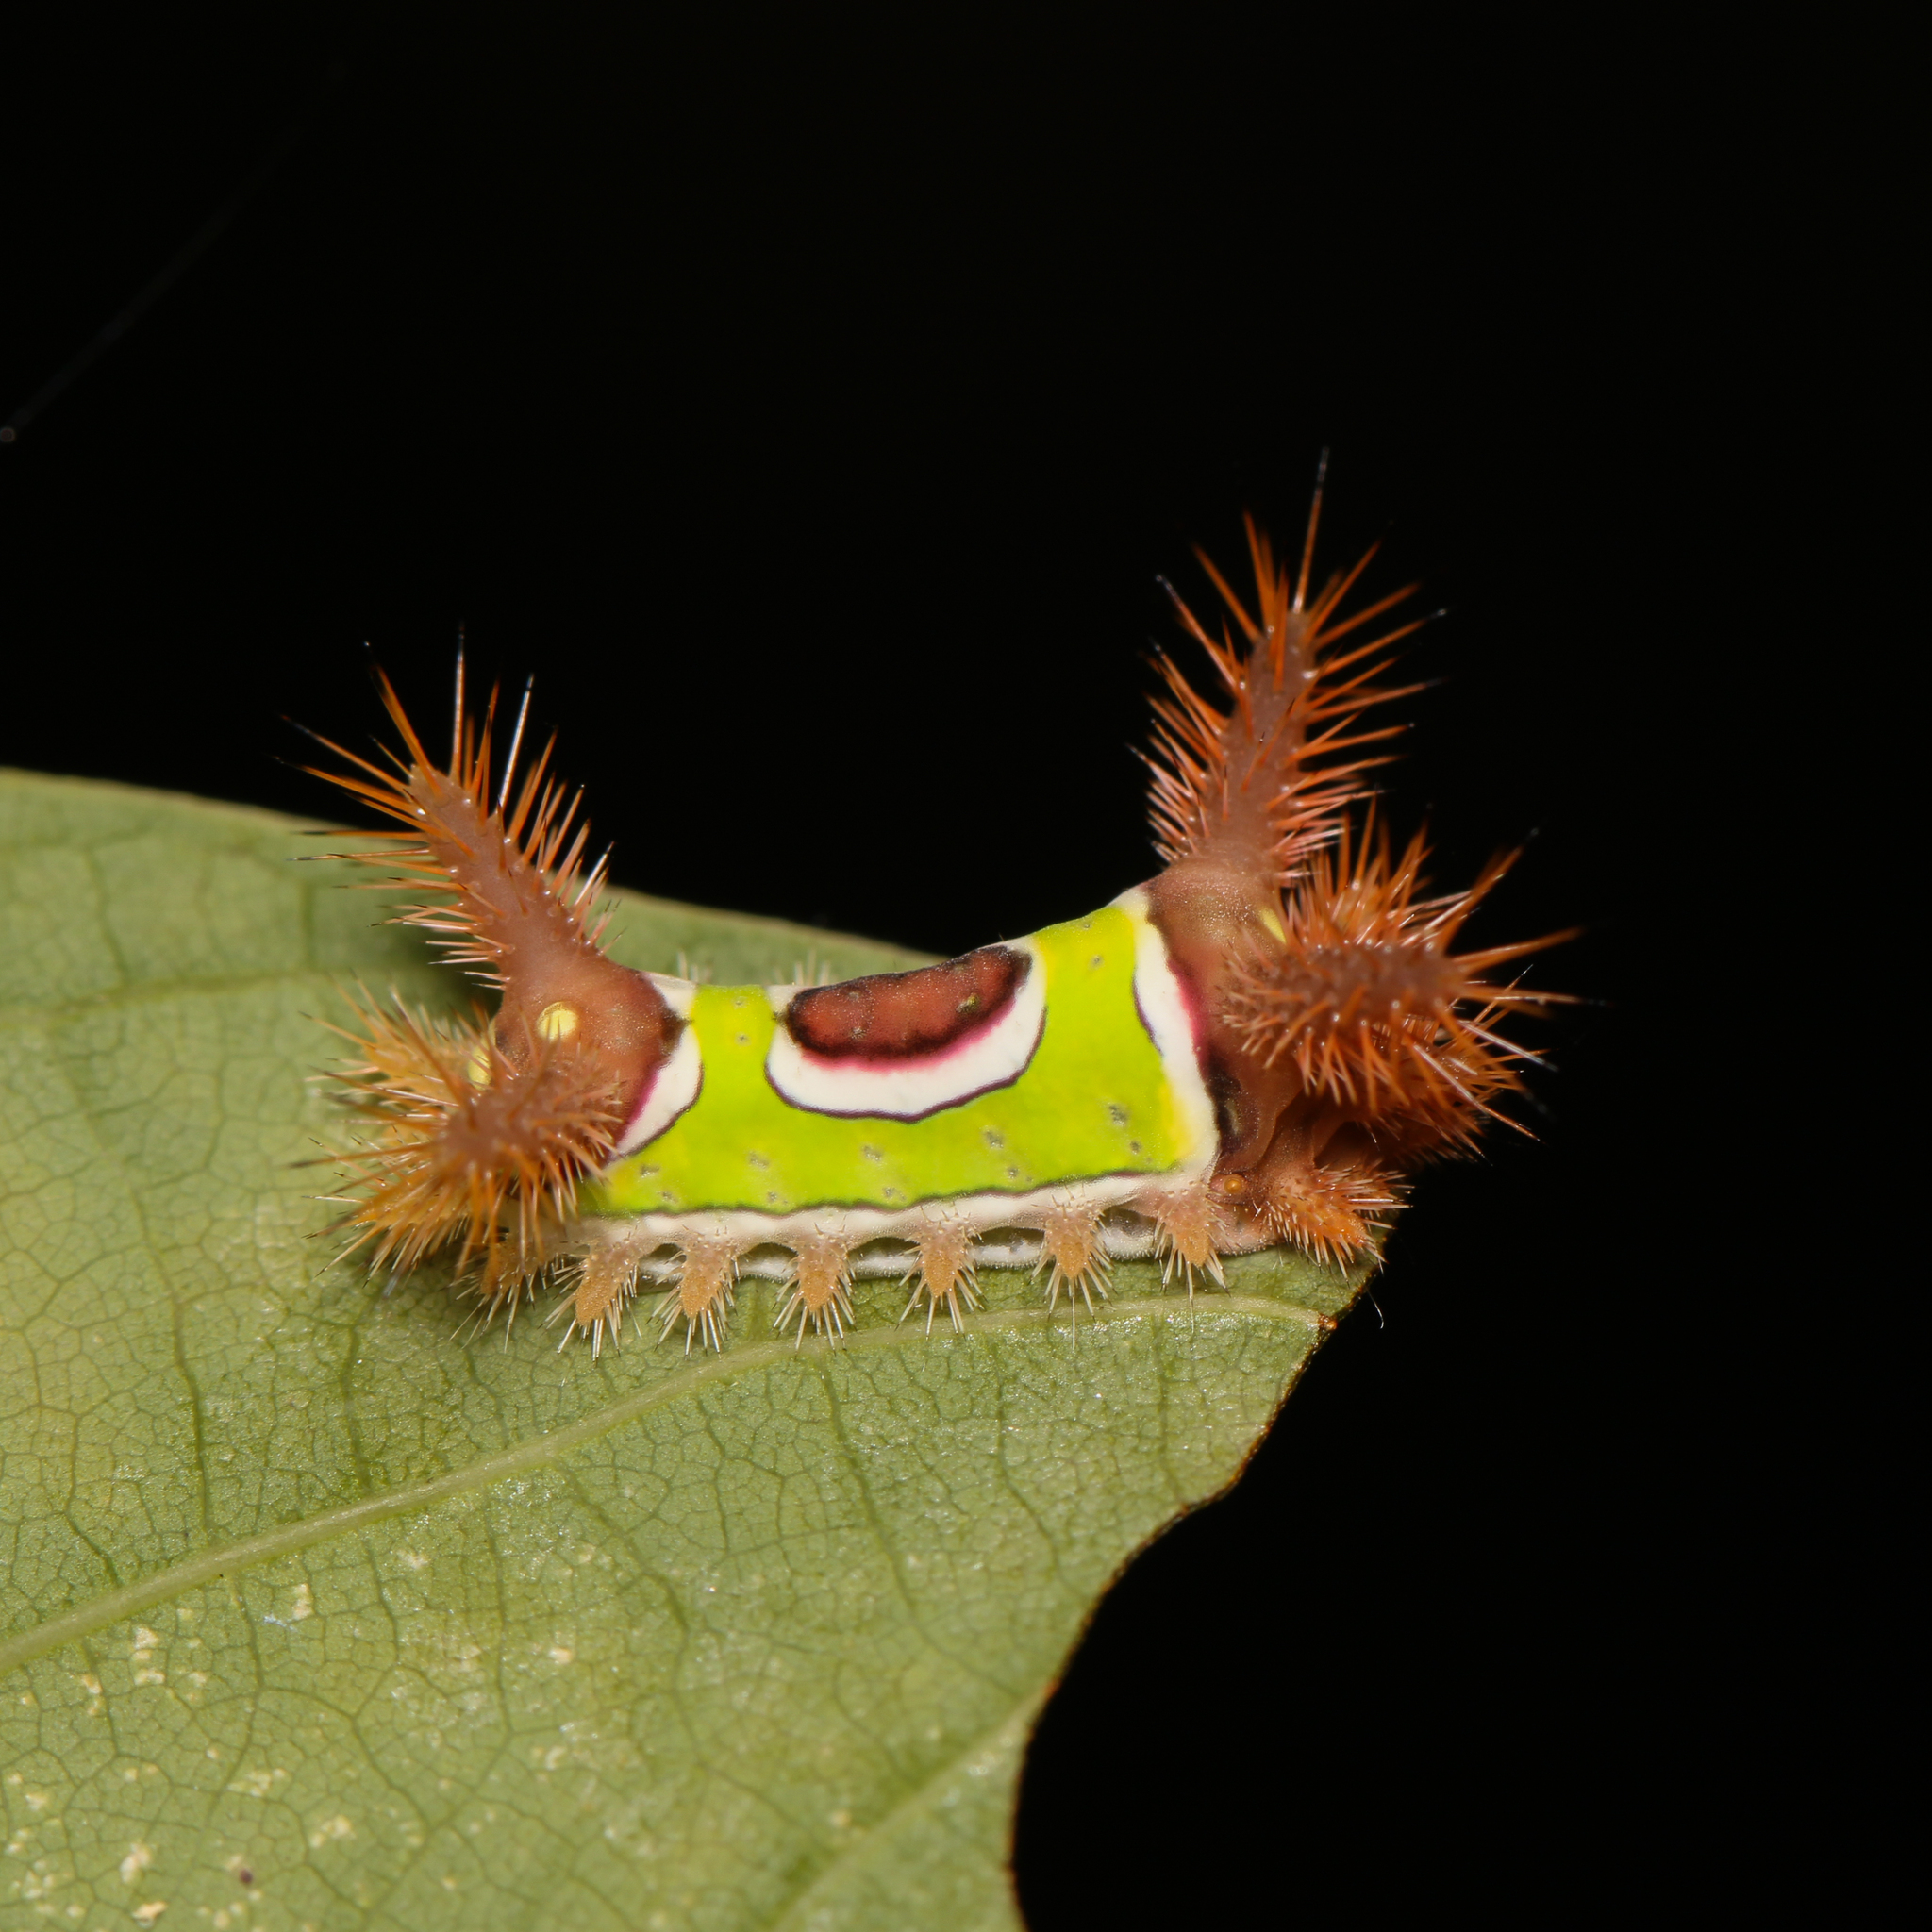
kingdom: Animalia
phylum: Arthropoda
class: Insecta
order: Lepidoptera
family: Limacodidae
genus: Acharia
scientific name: Acharia stimulea
